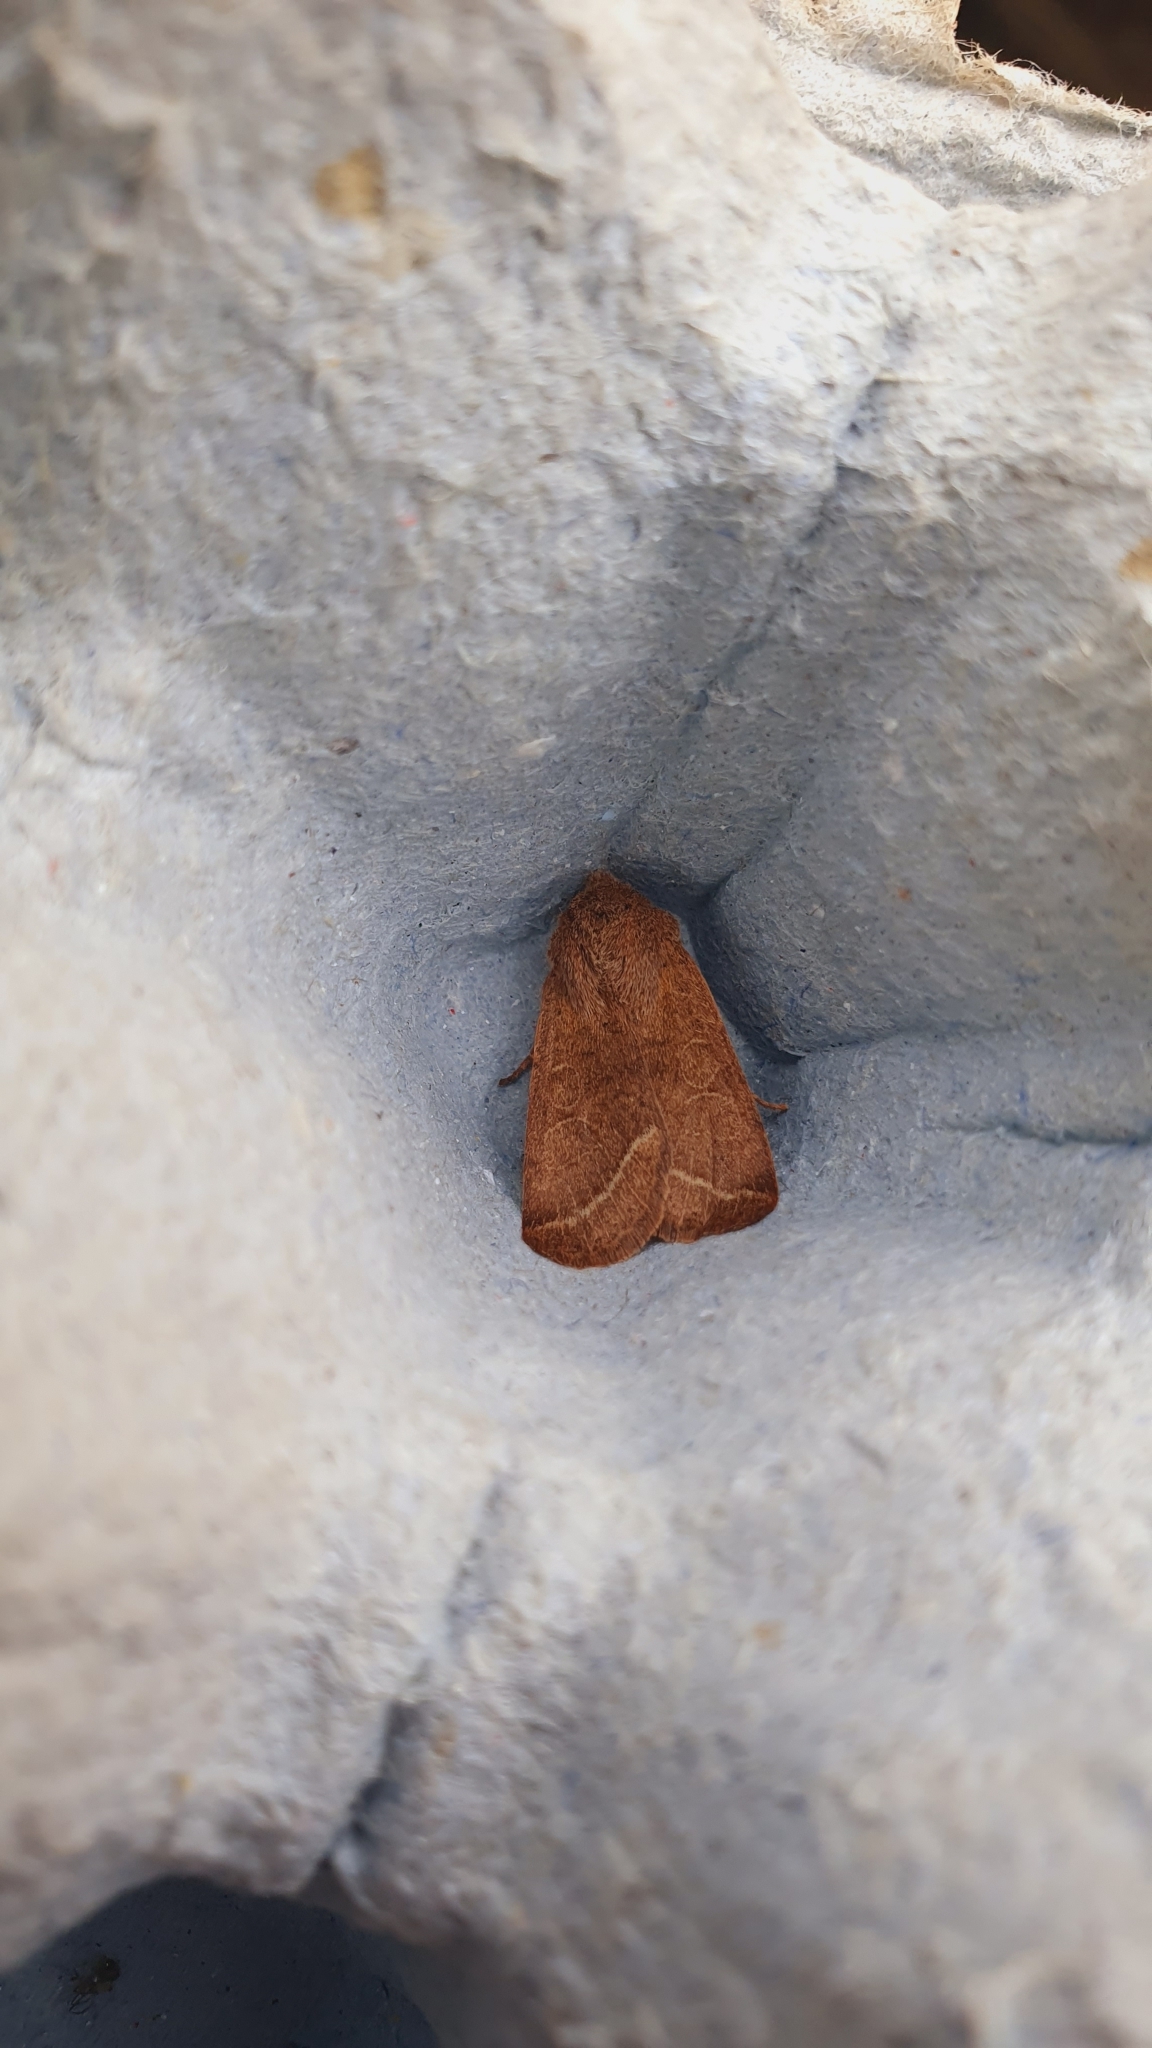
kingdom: Animalia
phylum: Arthropoda
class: Insecta
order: Lepidoptera
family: Noctuidae
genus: Orthosia
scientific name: Orthosia cerasi
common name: Common quaker
